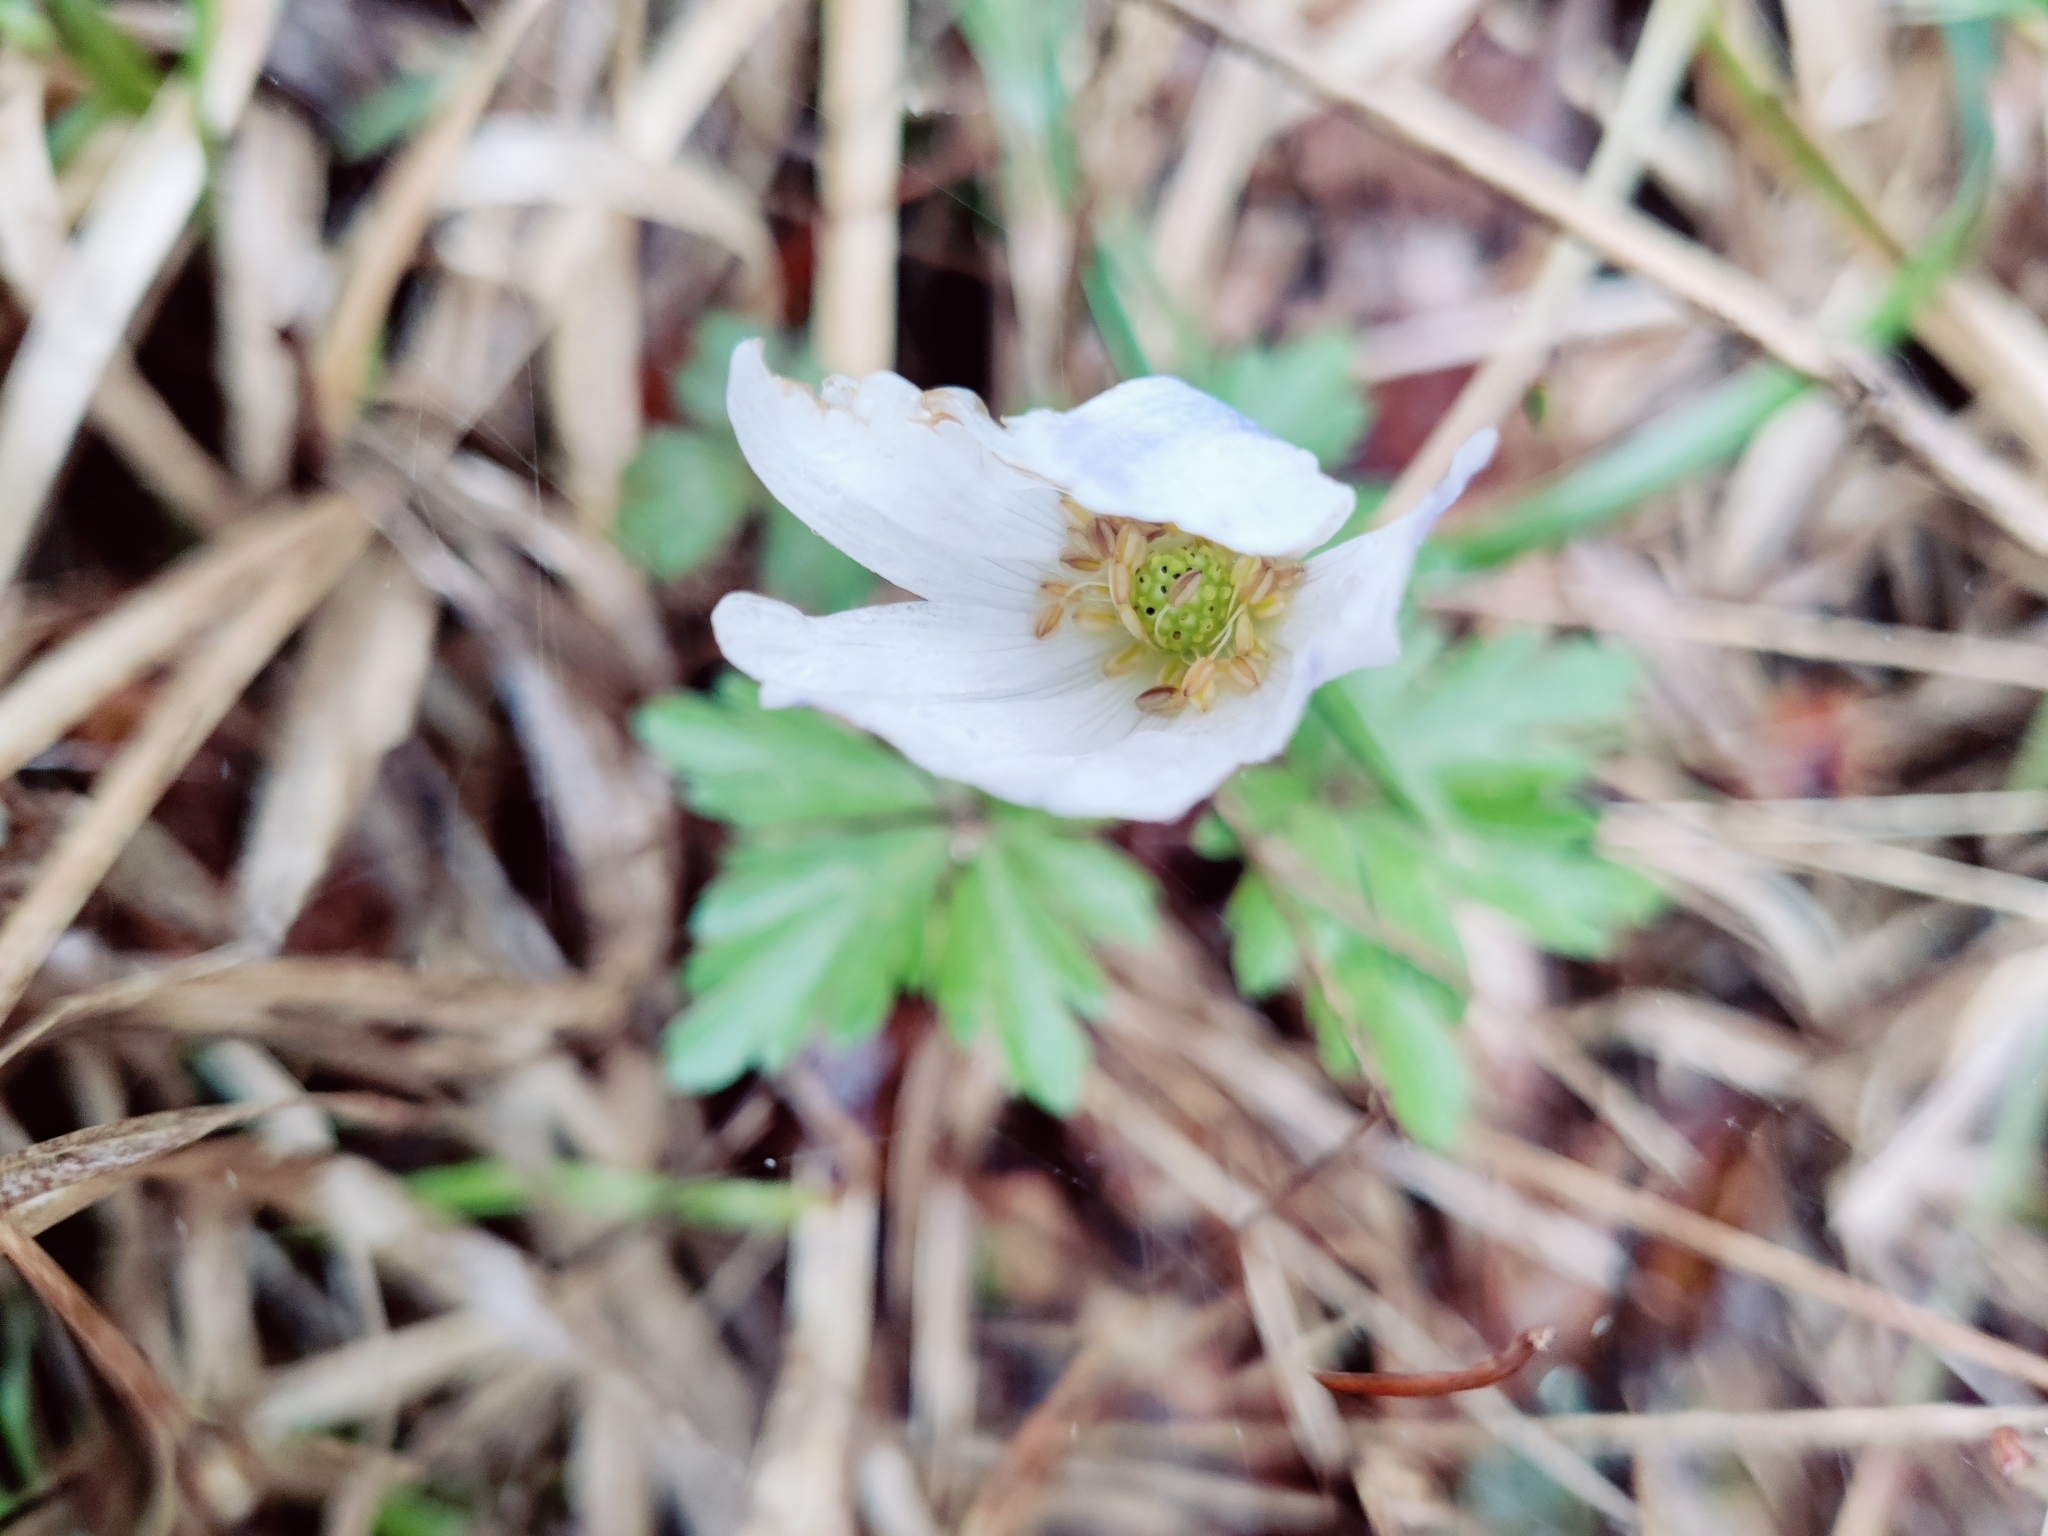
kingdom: Plantae
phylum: Tracheophyta
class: Magnoliopsida
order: Ranunculales
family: Ranunculaceae
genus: Anemone
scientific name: Anemone blanda
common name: Balkan anemone
